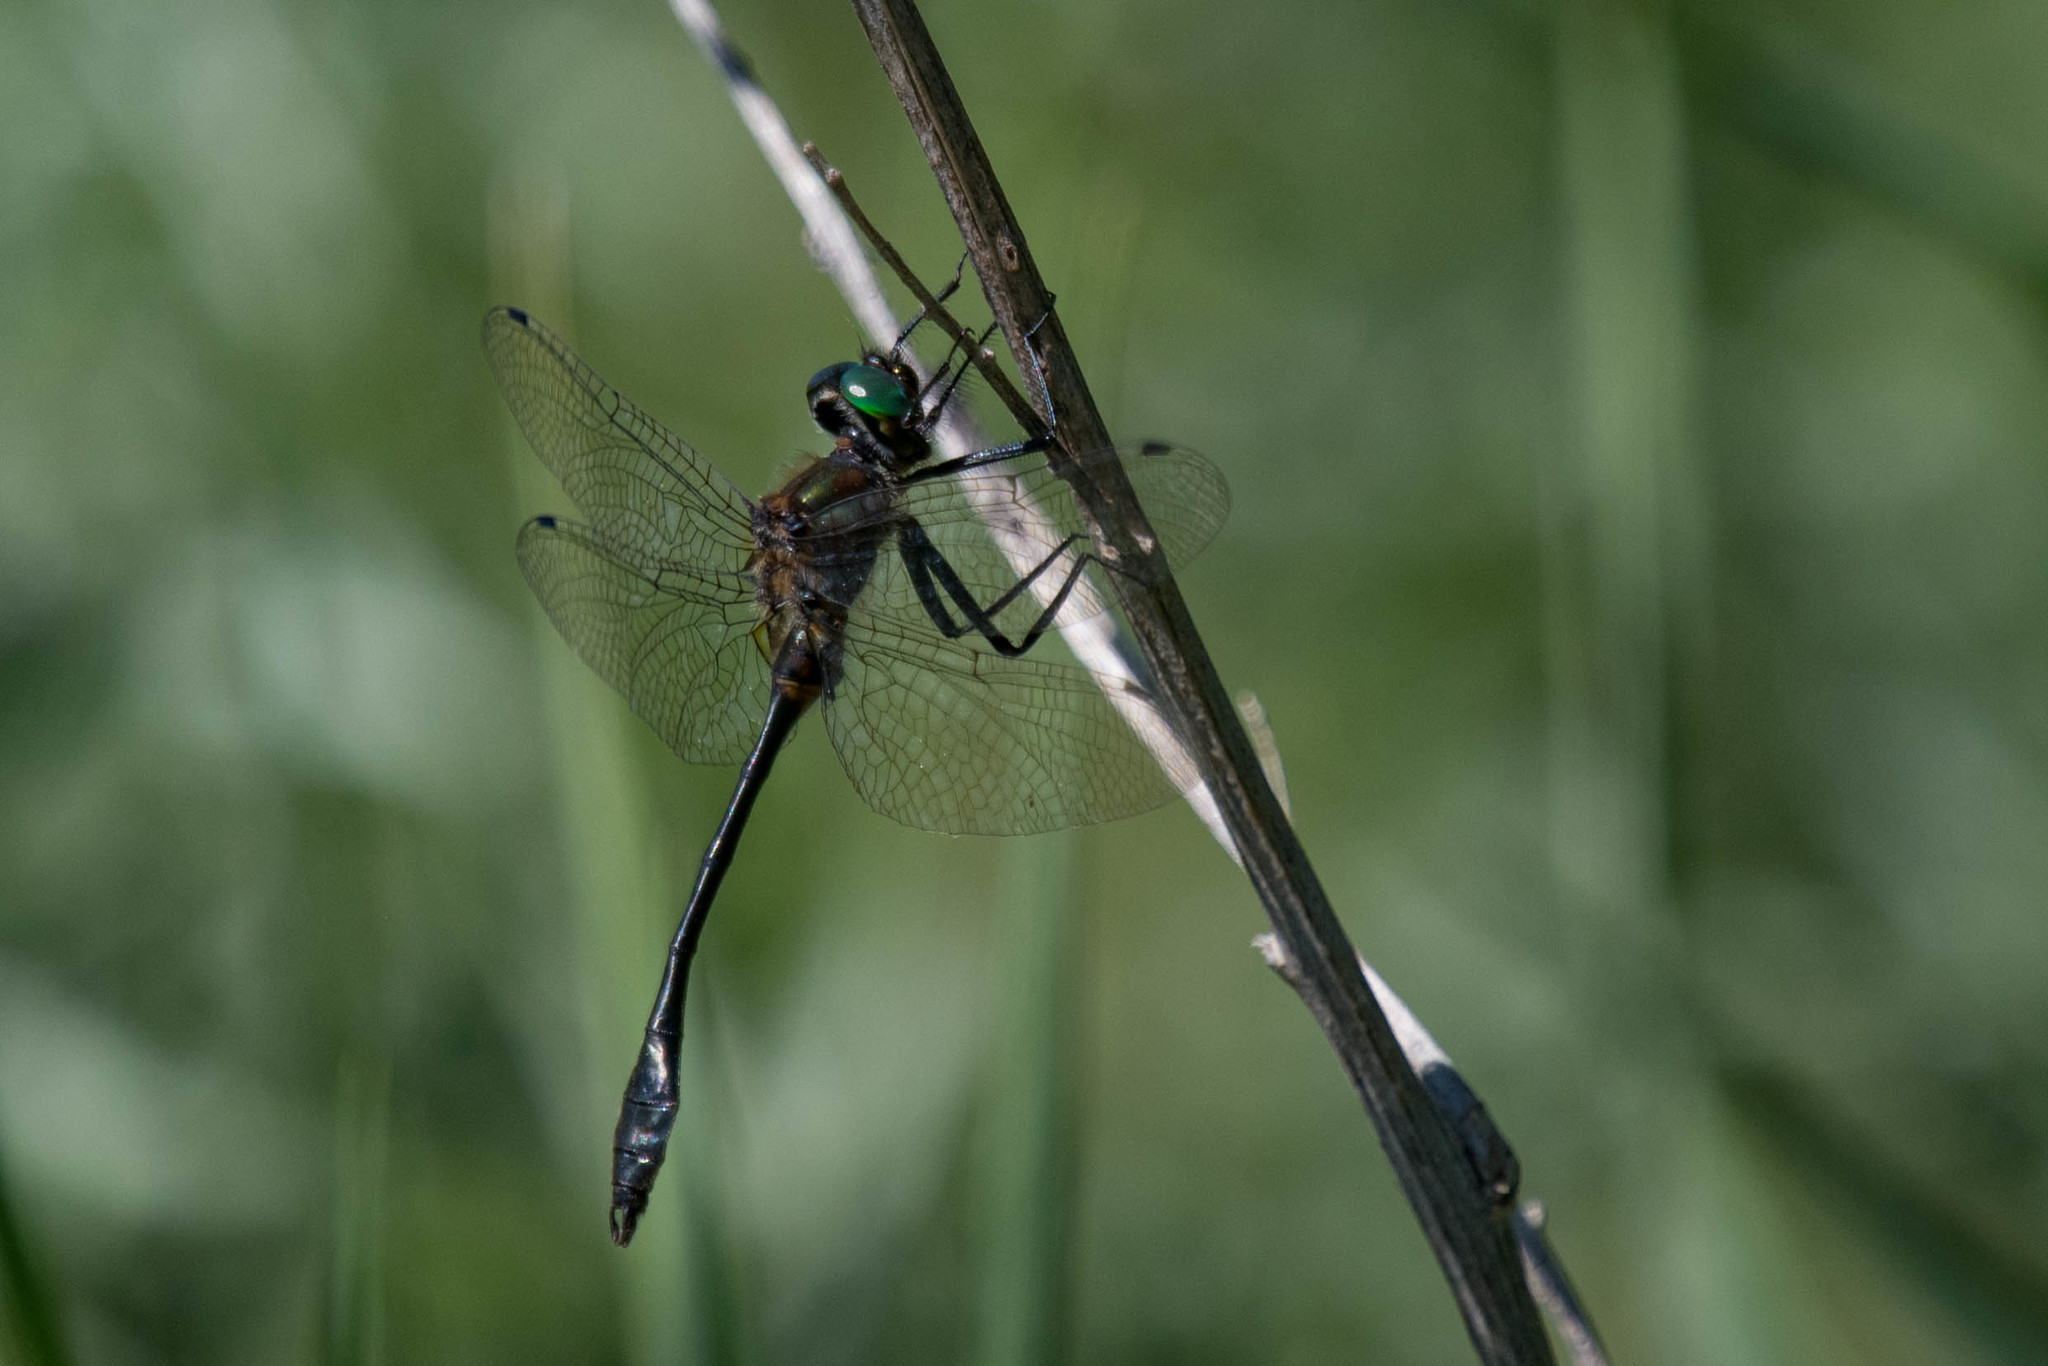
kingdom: Animalia
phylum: Arthropoda
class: Insecta
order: Odonata
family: Corduliidae
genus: Dorocordulia
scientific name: Dorocordulia libera
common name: Racket-tailed emerald
